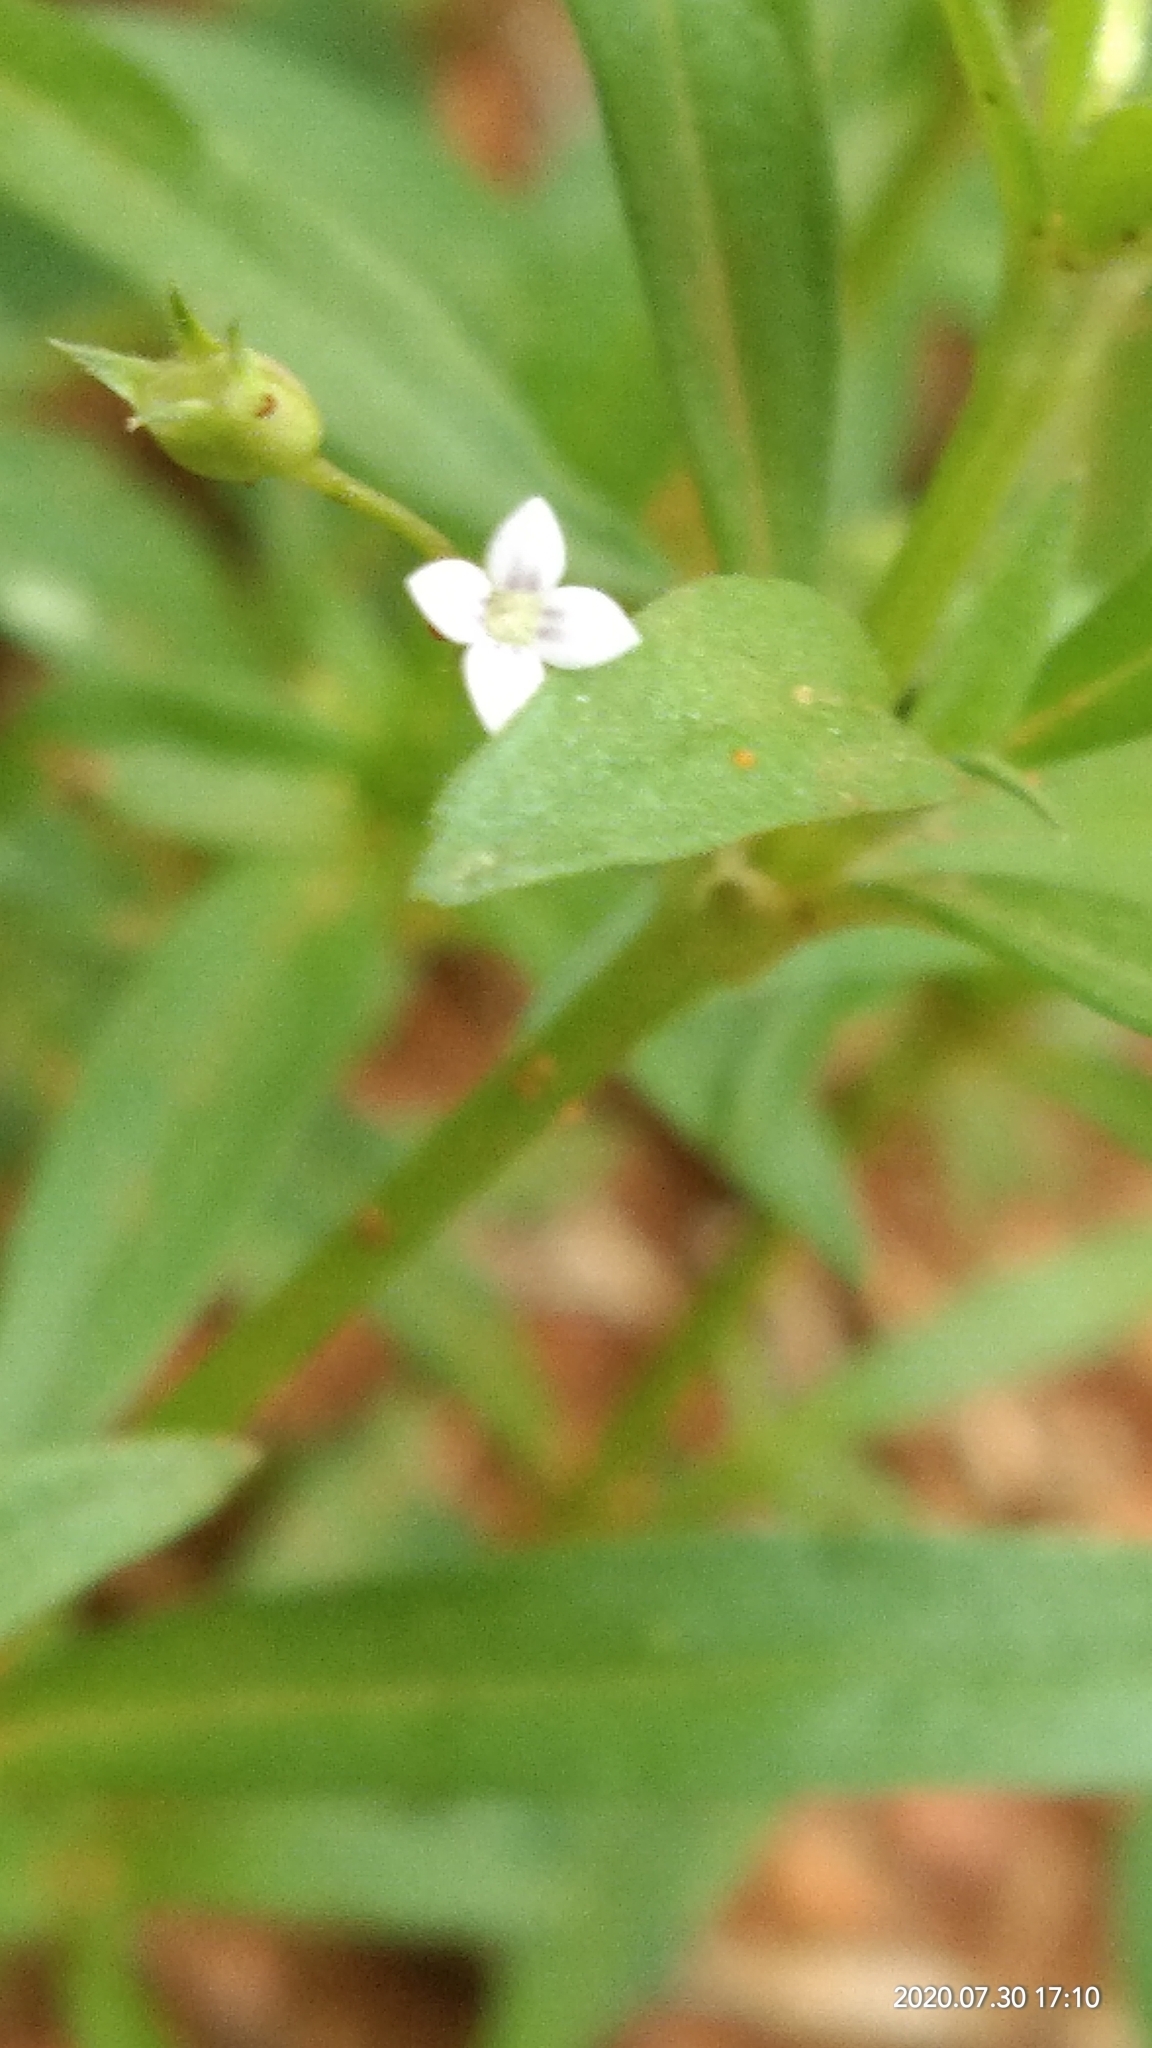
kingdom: Plantae
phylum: Tracheophyta
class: Magnoliopsida
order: Gentianales
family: Rubiaceae
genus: Oldenlandia
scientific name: Oldenlandia corymbosa
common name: Flat-top mille graines
